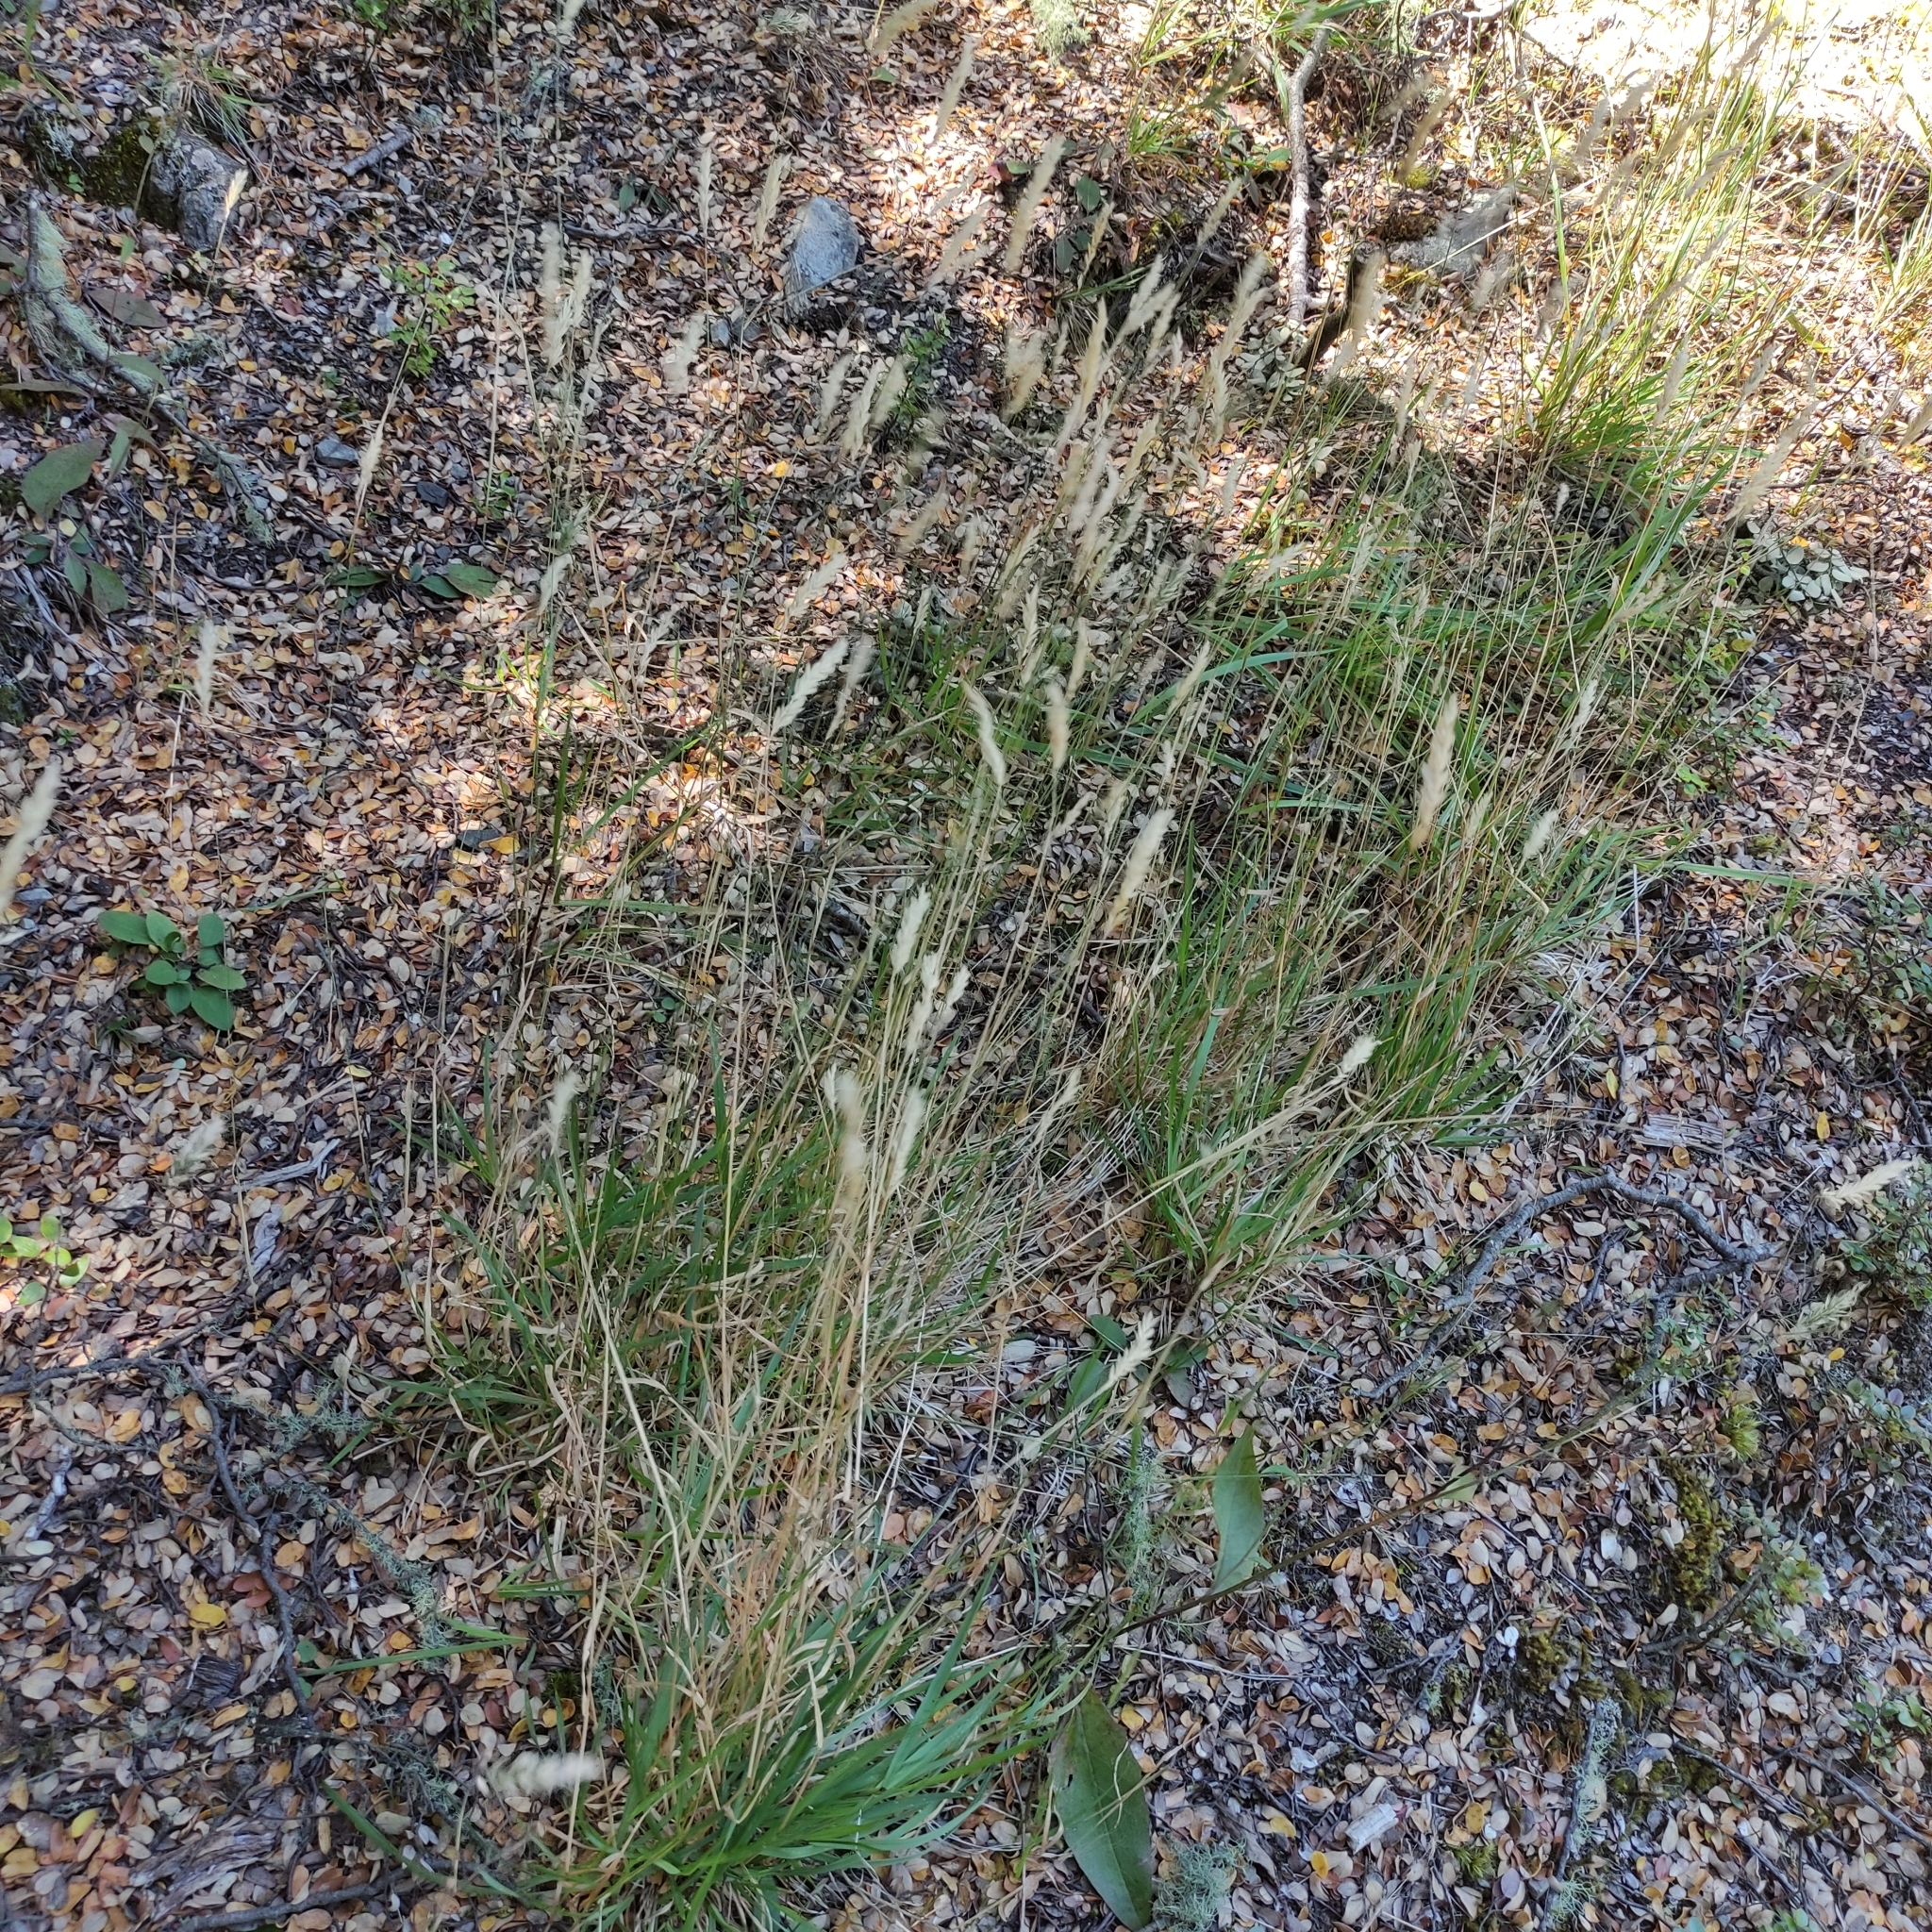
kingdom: Plantae
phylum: Tracheophyta
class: Liliopsida
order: Poales
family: Poaceae
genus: Anthoxanthum
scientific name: Anthoxanthum odoratum
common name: Sweet vernalgrass
